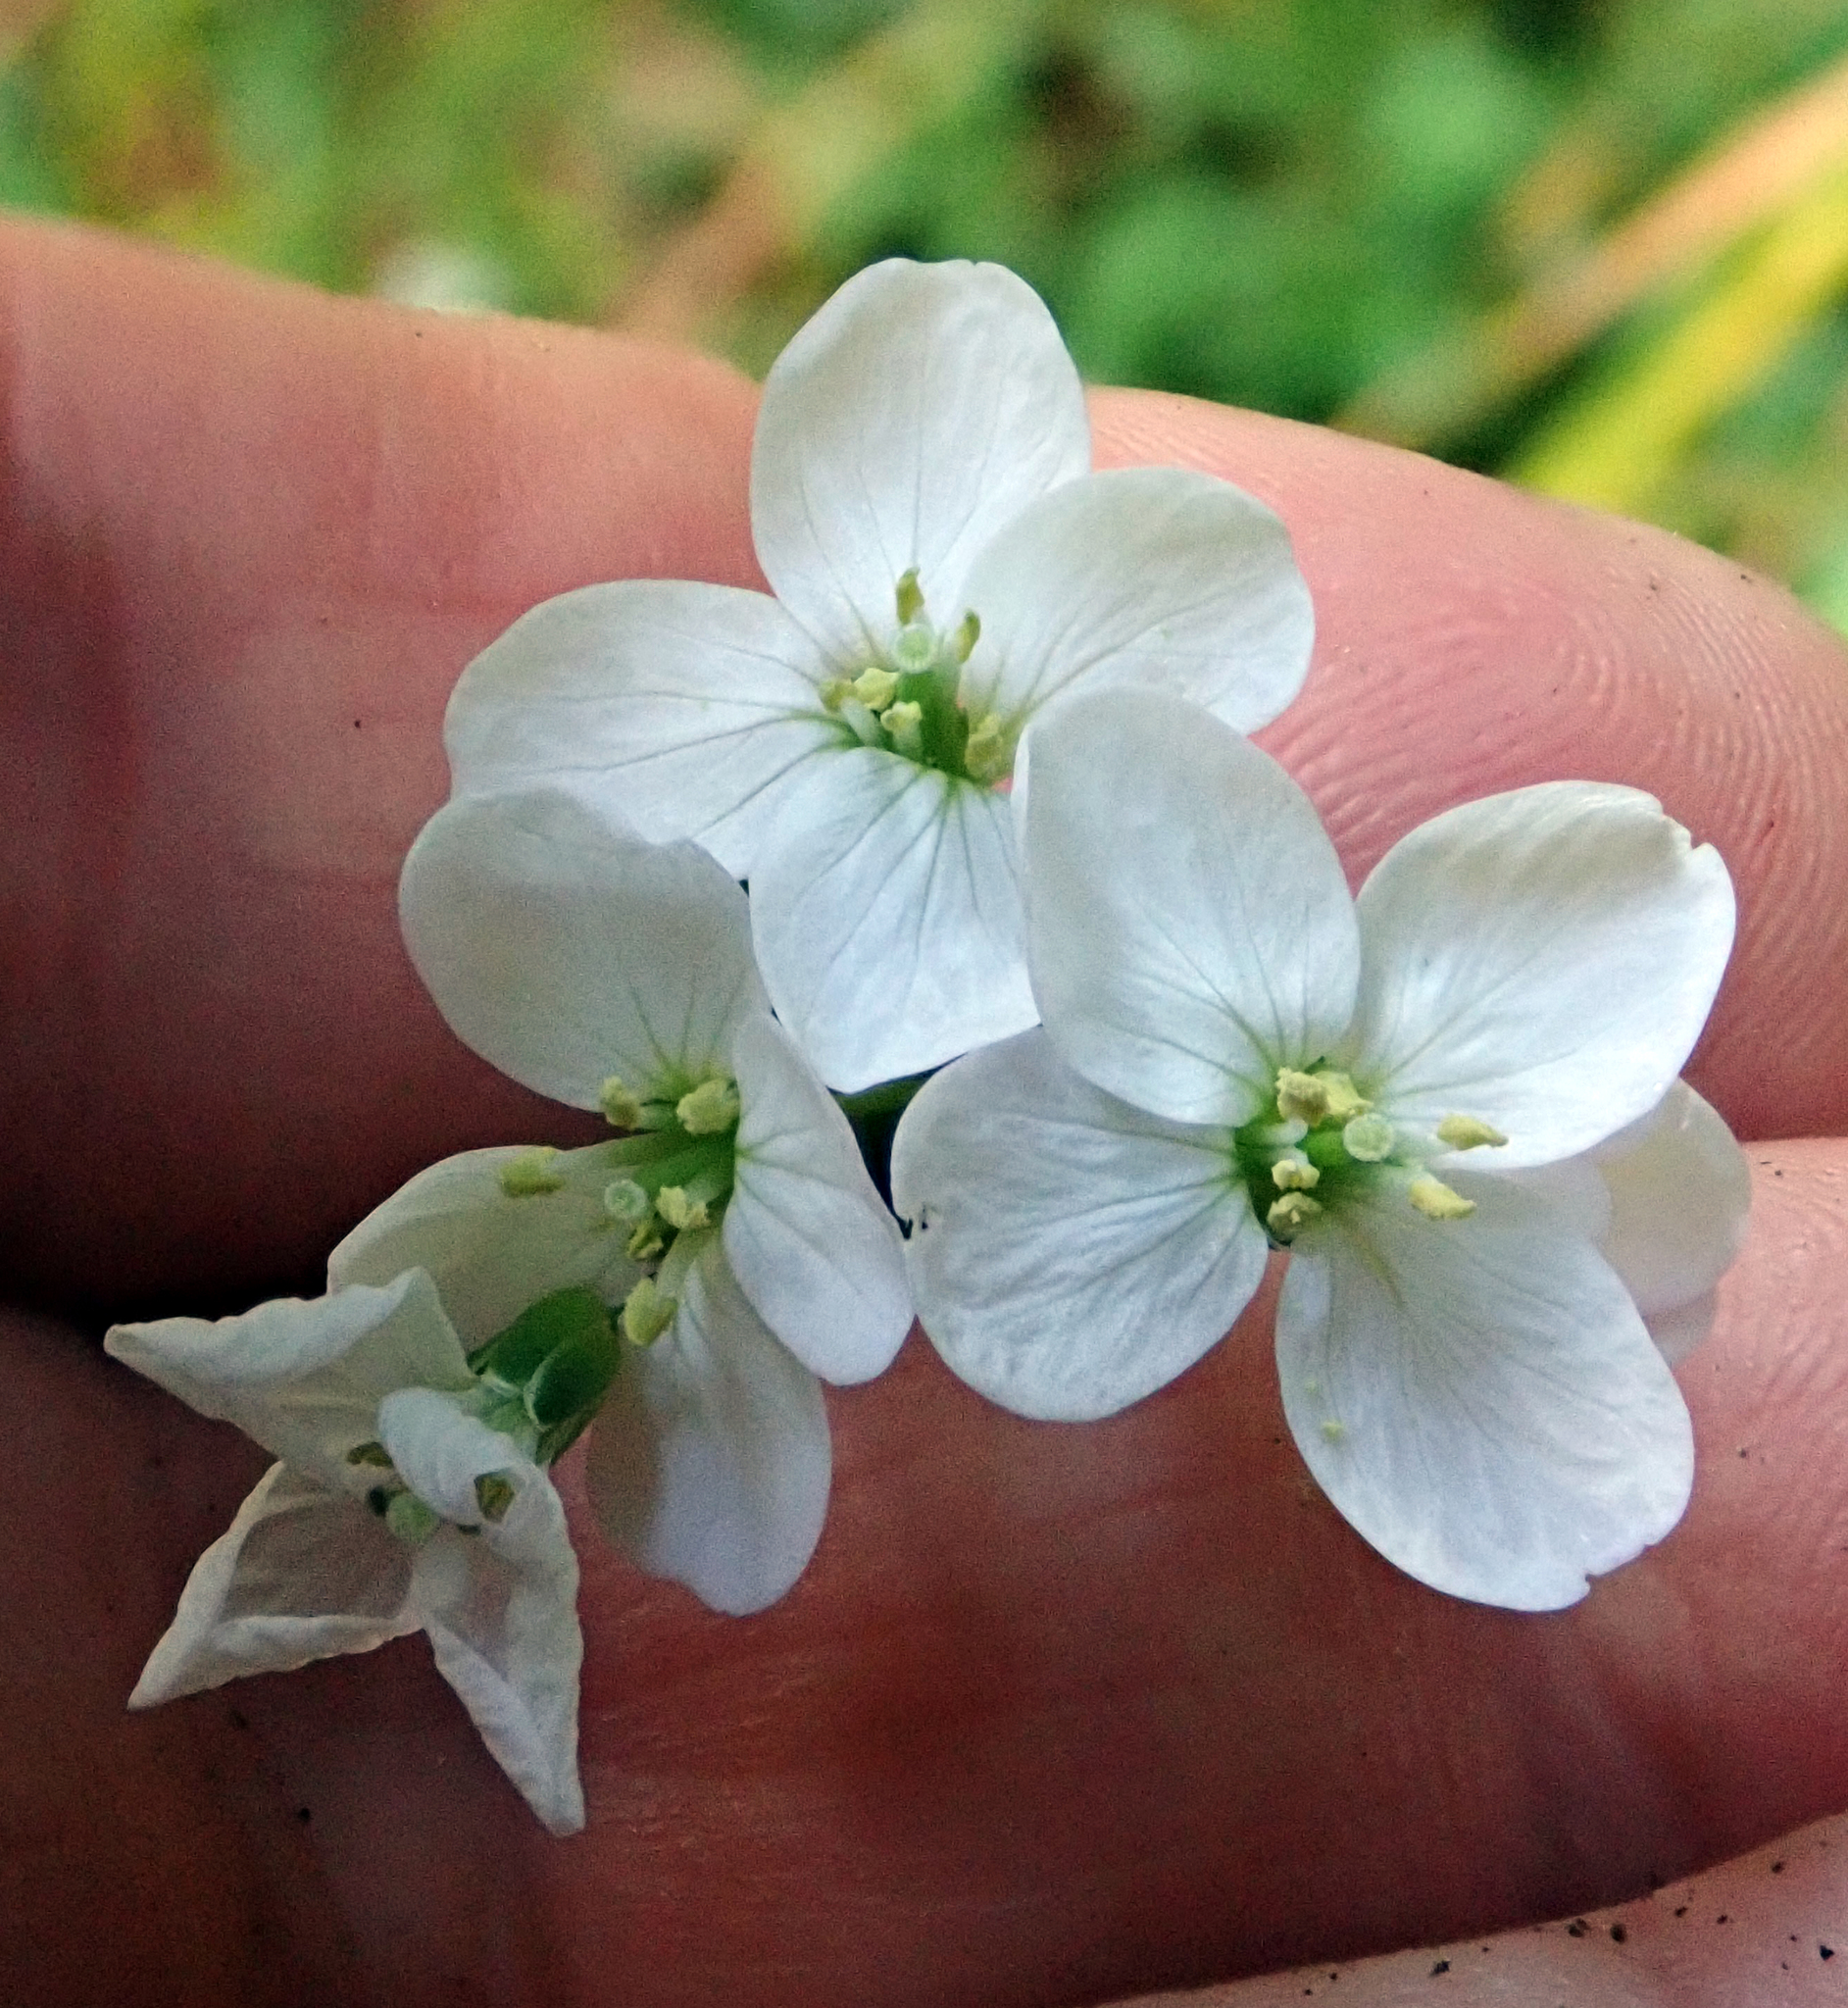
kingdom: Plantae
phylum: Tracheophyta
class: Magnoliopsida
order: Brassicales
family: Brassicaceae
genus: Cardamine
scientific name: Cardamine pratensis
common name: Cuckoo flower
